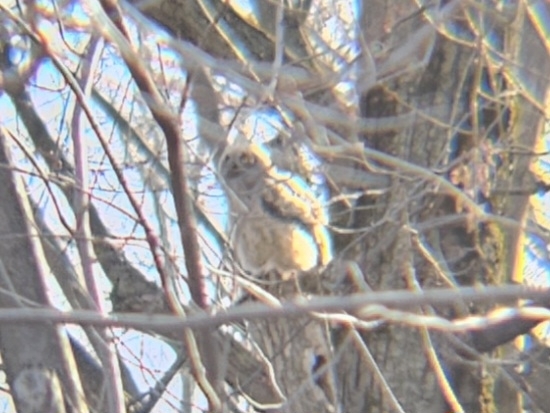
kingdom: Animalia
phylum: Chordata
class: Aves
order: Strigiformes
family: Strigidae
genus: Bubo
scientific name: Bubo virginianus
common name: Great horned owl
